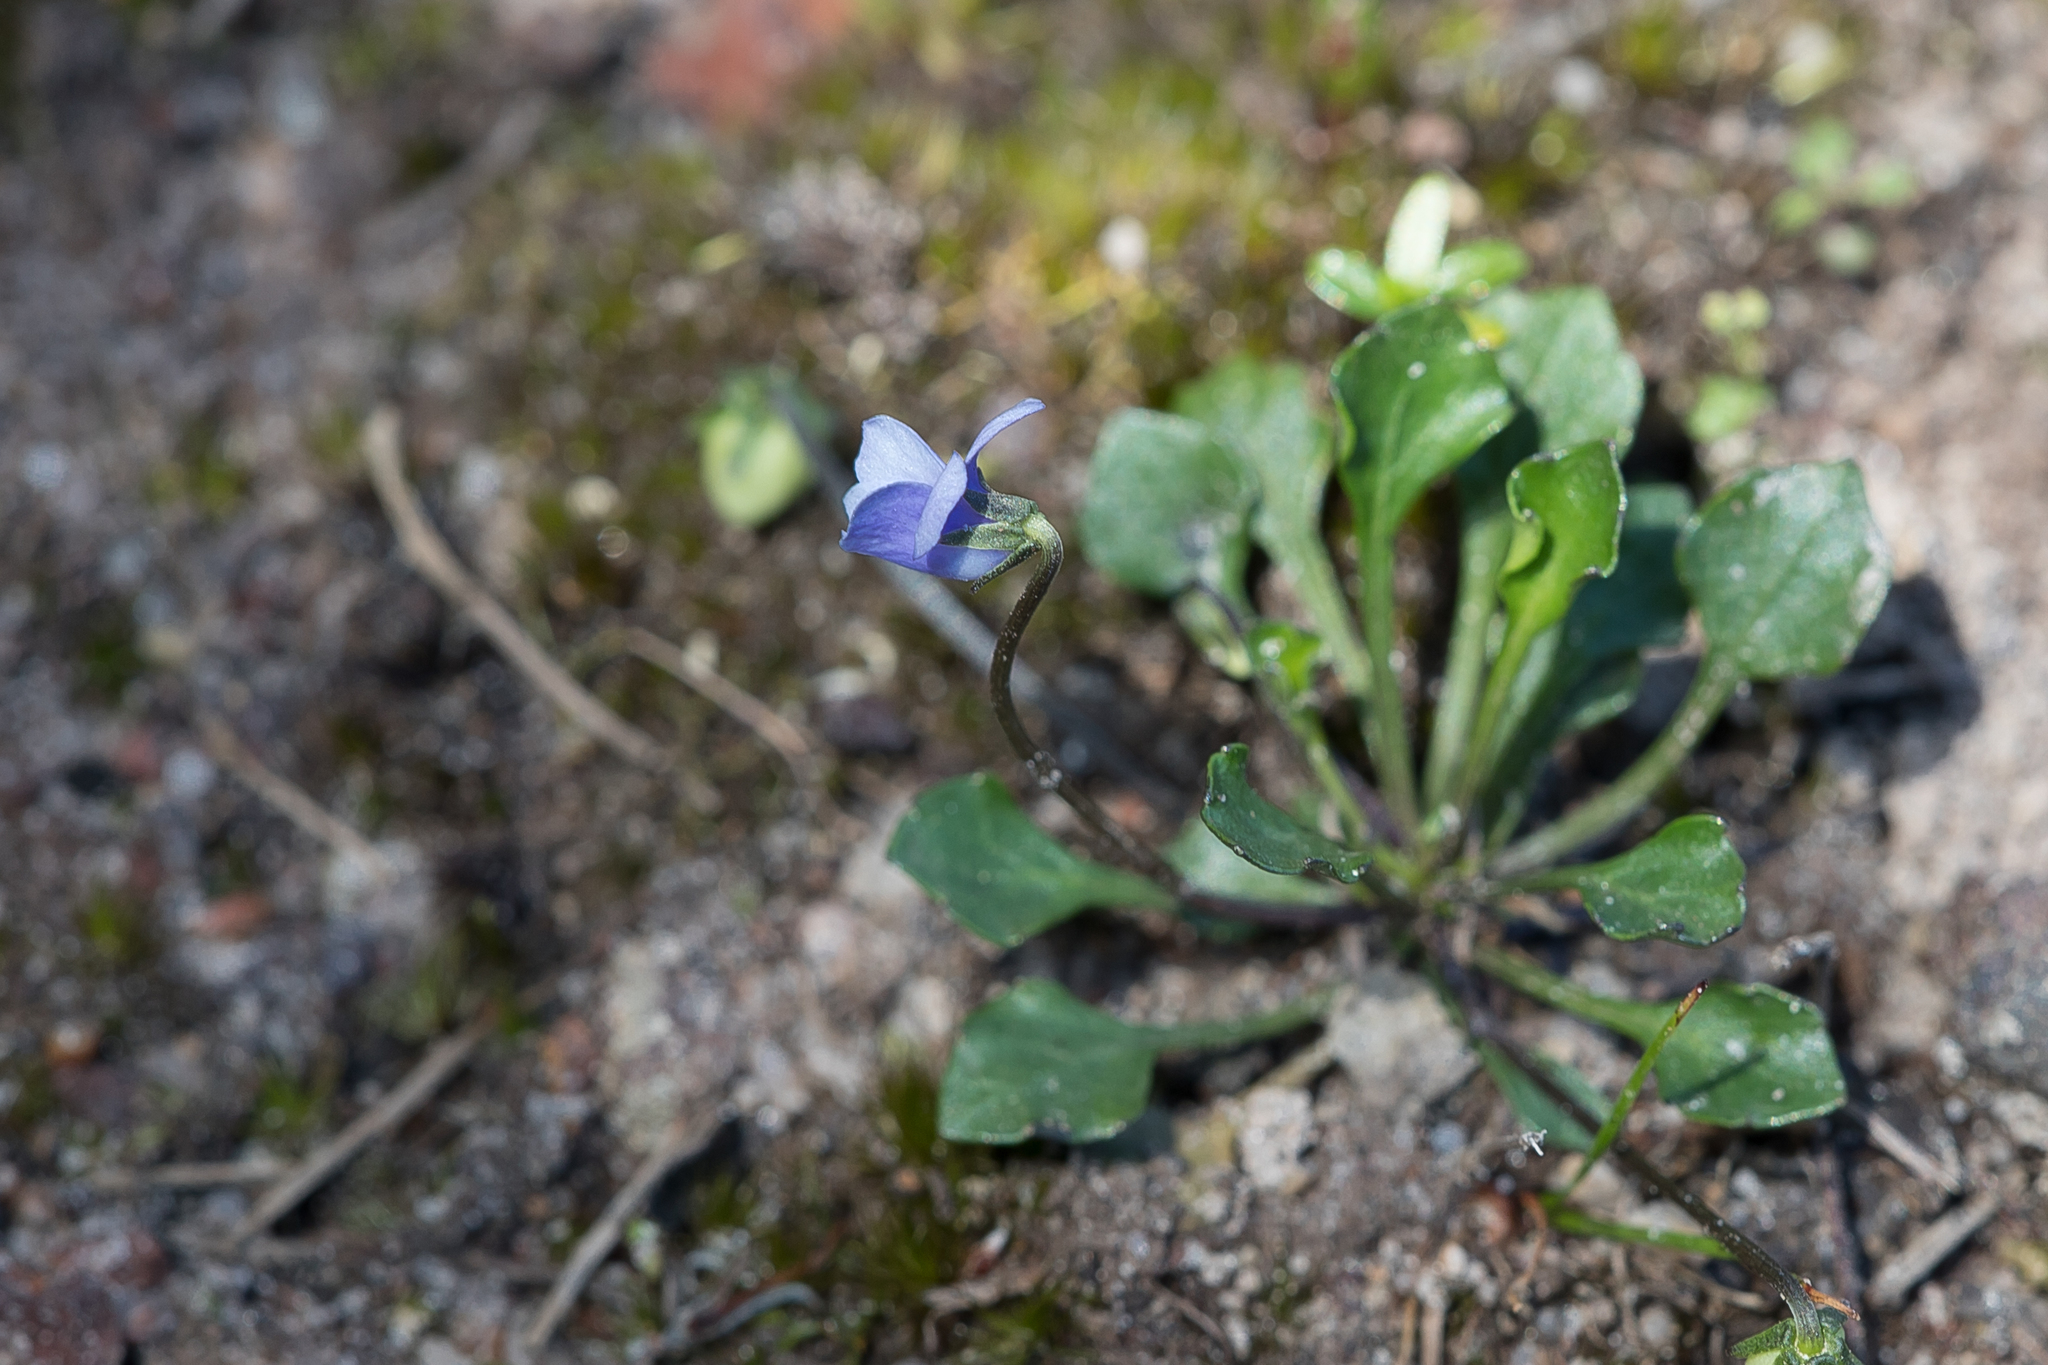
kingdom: Plantae
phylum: Tracheophyta
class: Magnoliopsida
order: Malpighiales
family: Violaceae
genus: Viola
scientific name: Viola sieberiana
